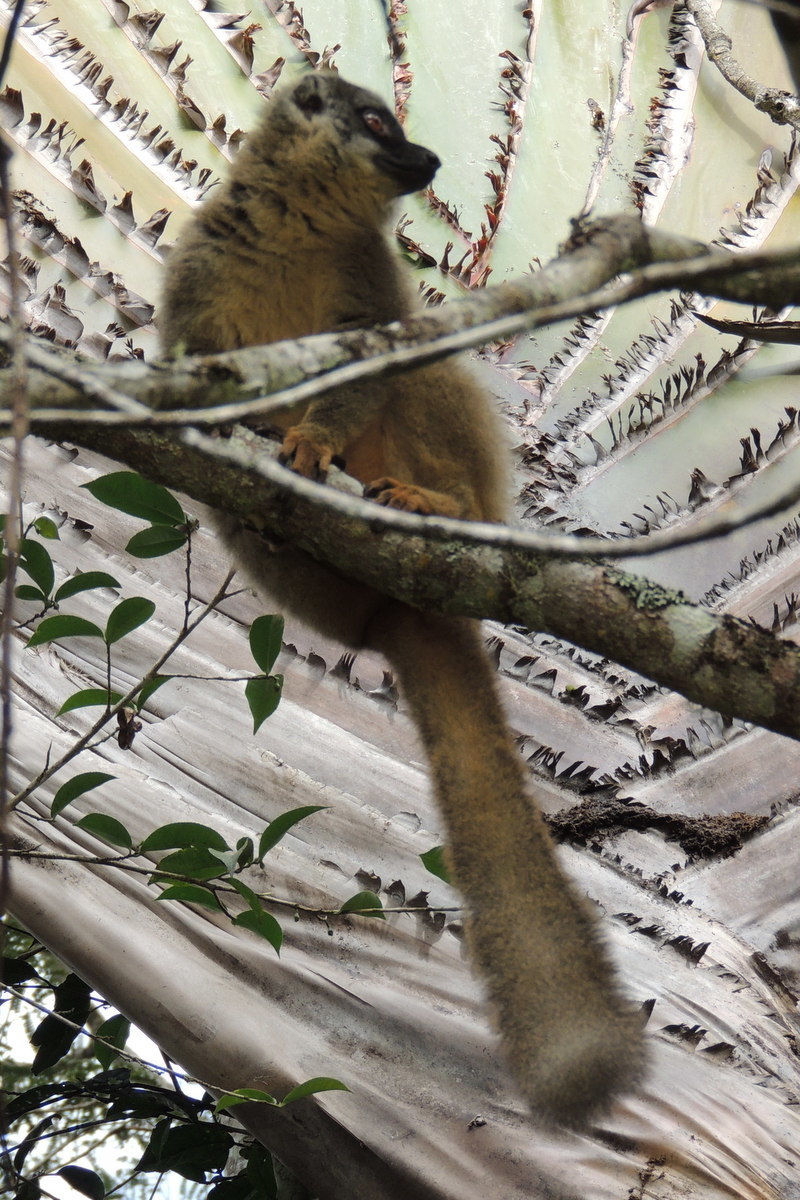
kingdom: Animalia
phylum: Chordata
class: Mammalia
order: Primates
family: Lemuridae
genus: Eulemur
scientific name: Eulemur fulvus
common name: Brown lemur
